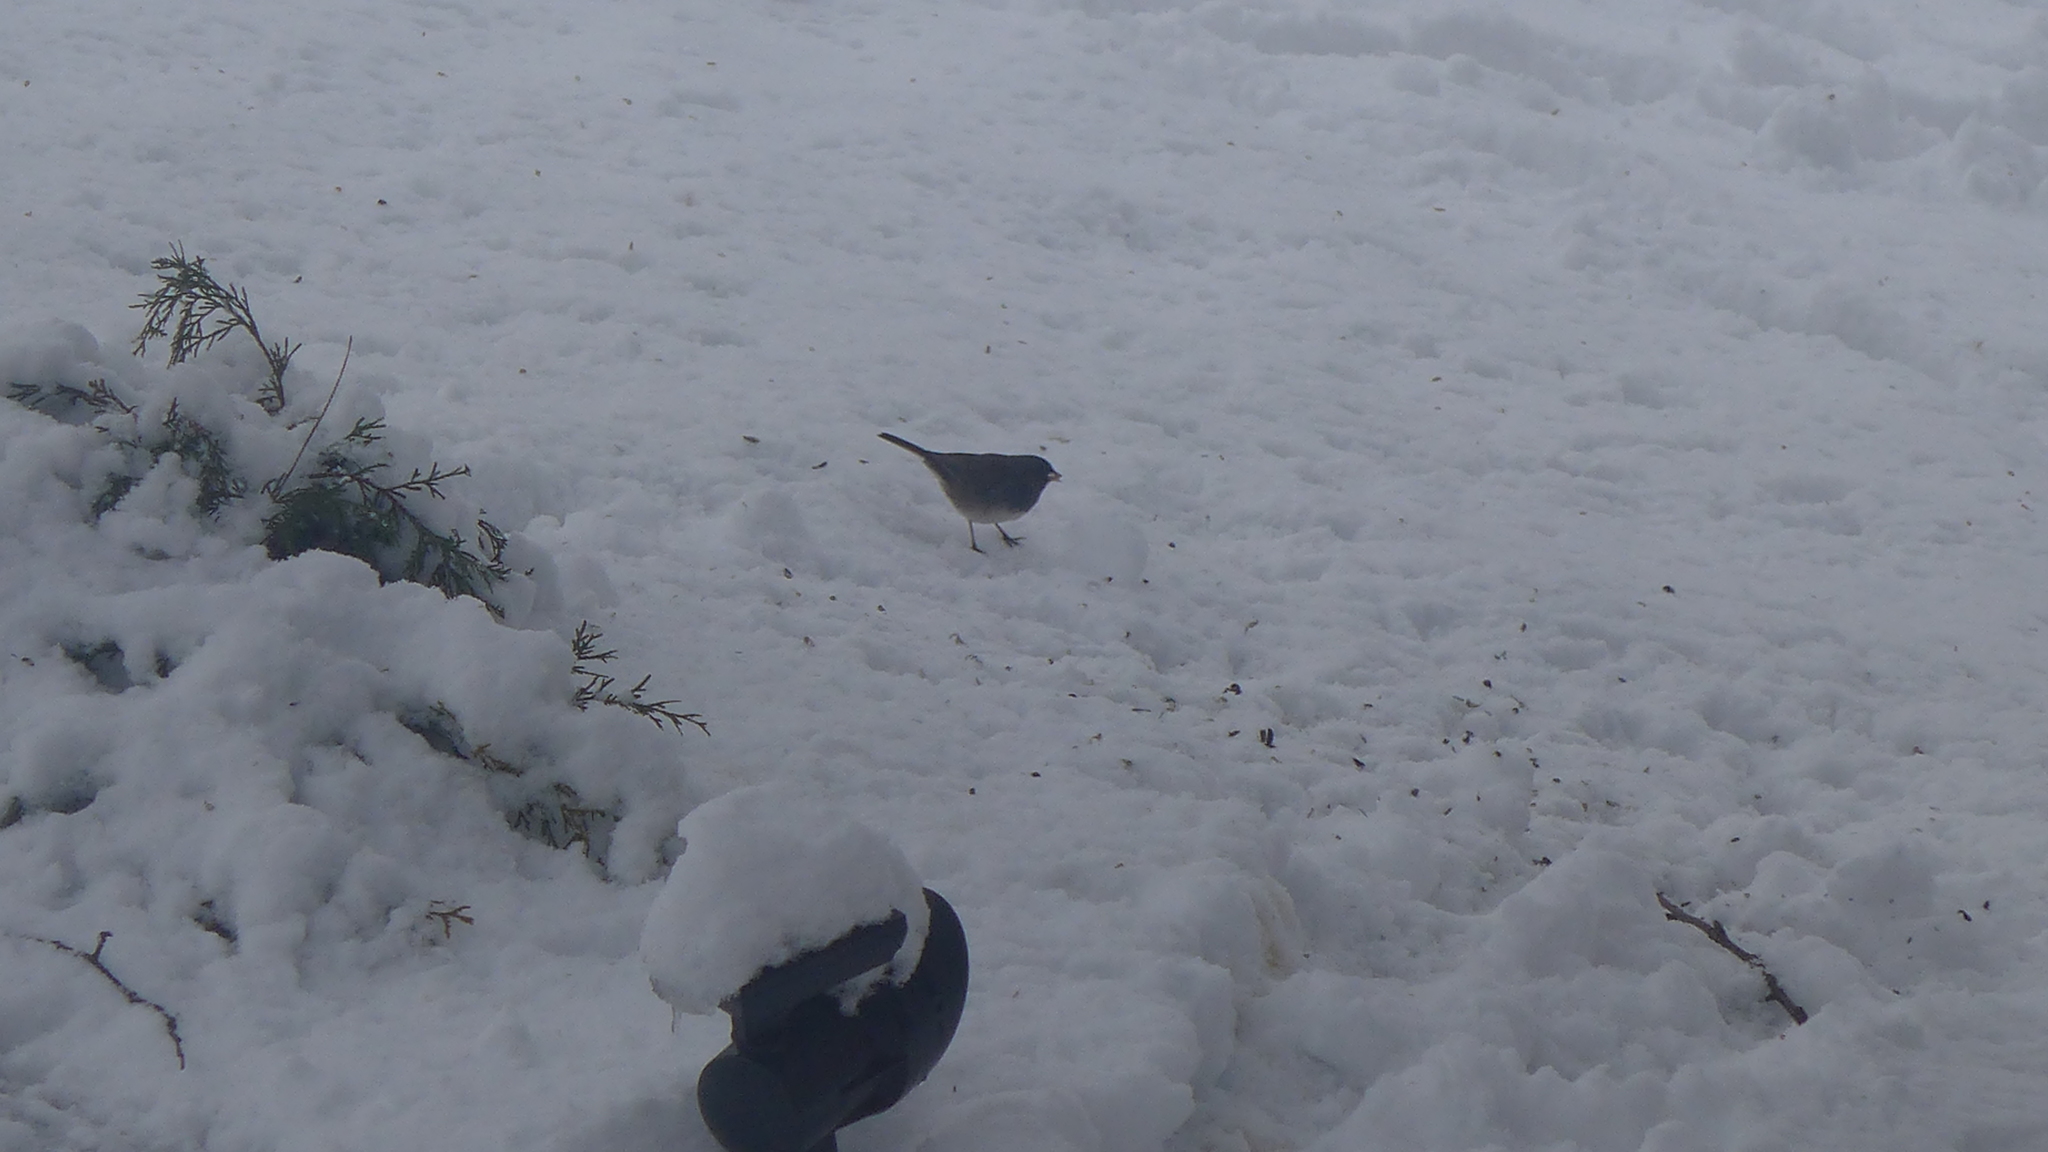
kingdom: Animalia
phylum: Chordata
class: Aves
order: Passeriformes
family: Passerellidae
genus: Junco
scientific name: Junco hyemalis
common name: Dark-eyed junco
